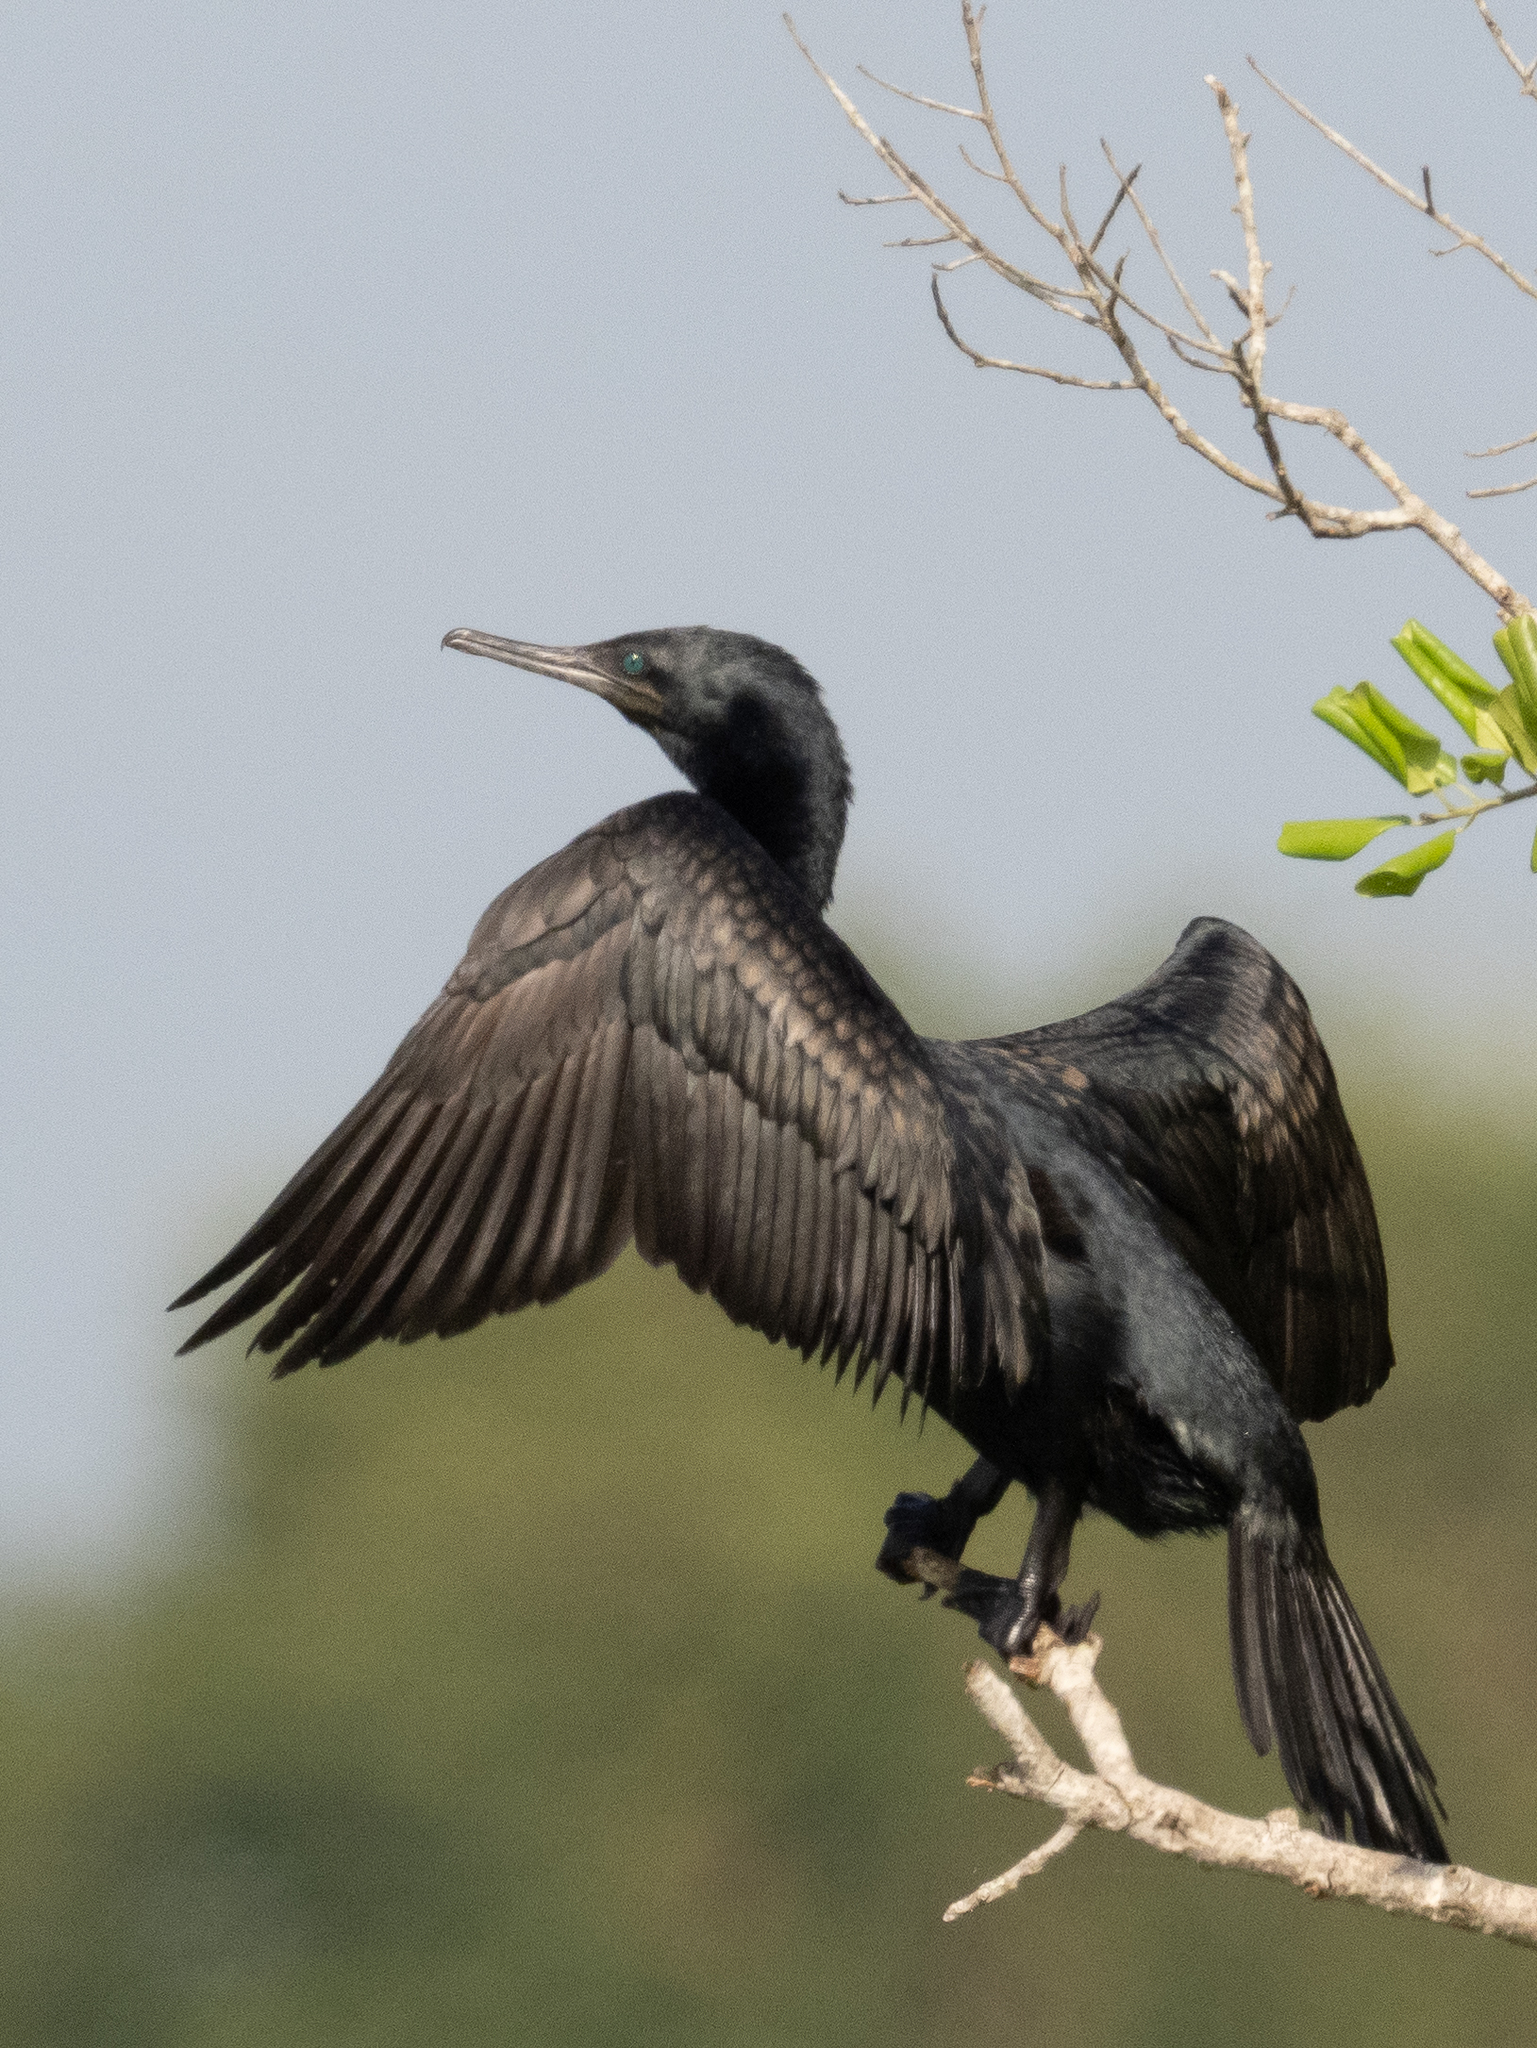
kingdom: Animalia
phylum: Chordata
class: Aves
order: Suliformes
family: Phalacrocoracidae
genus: Phalacrocorax
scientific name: Phalacrocorax fuscicollis
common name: Indian cormorant
